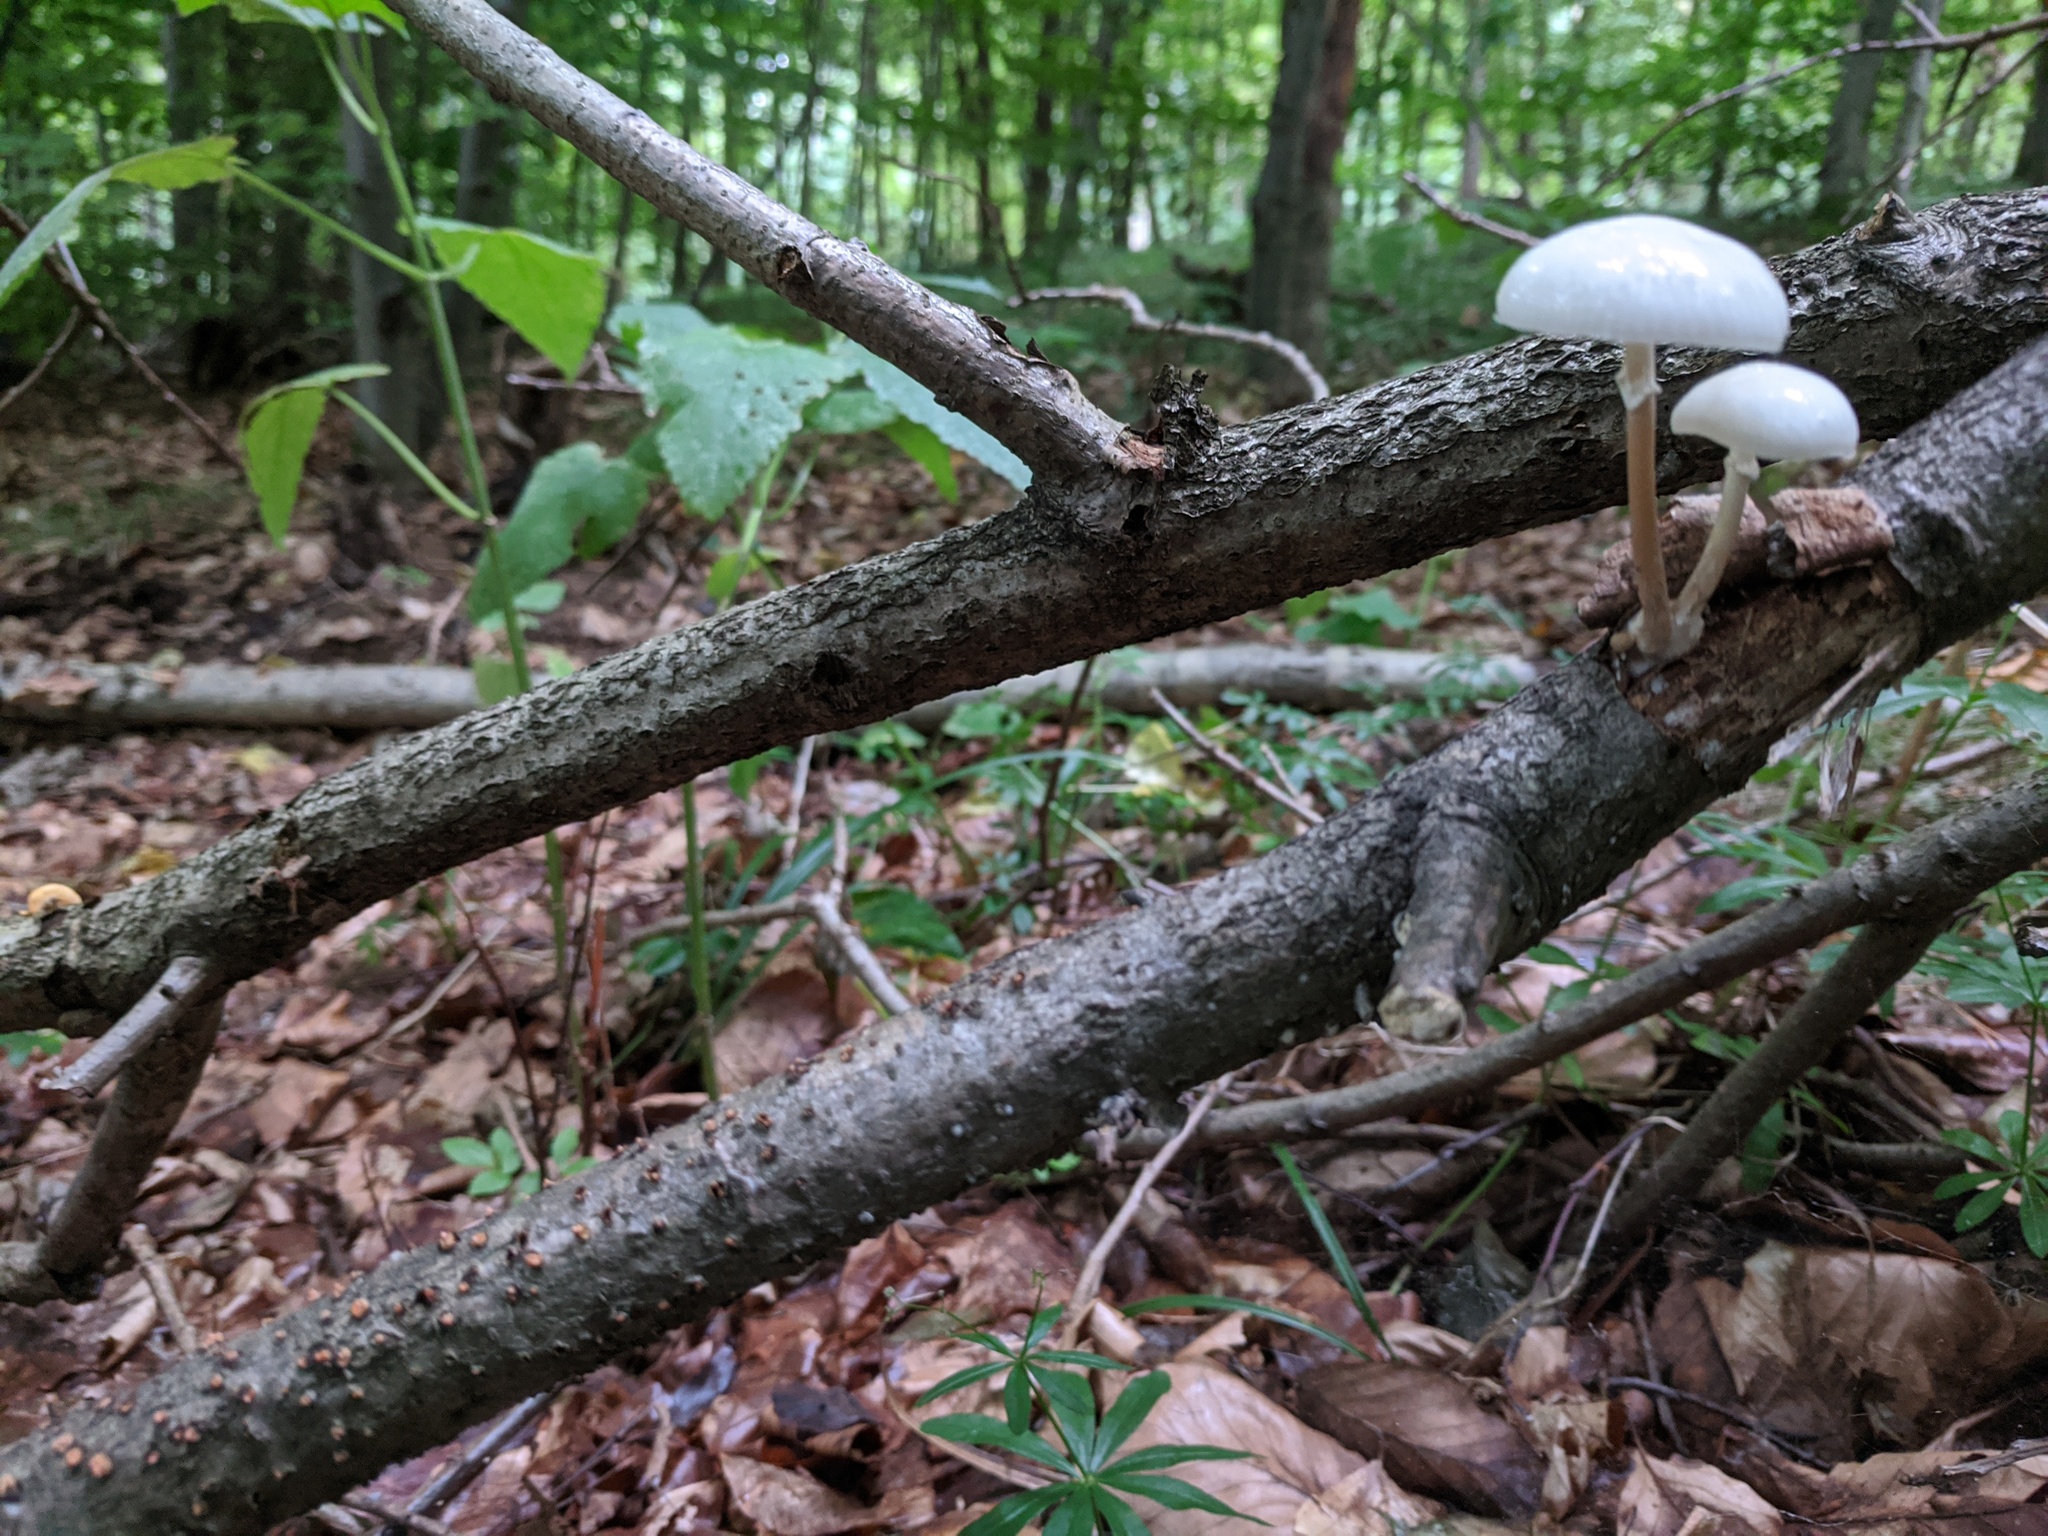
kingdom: Fungi
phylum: Basidiomycota
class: Agaricomycetes
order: Agaricales
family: Physalacriaceae
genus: Mucidula
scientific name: Mucidula mucida
